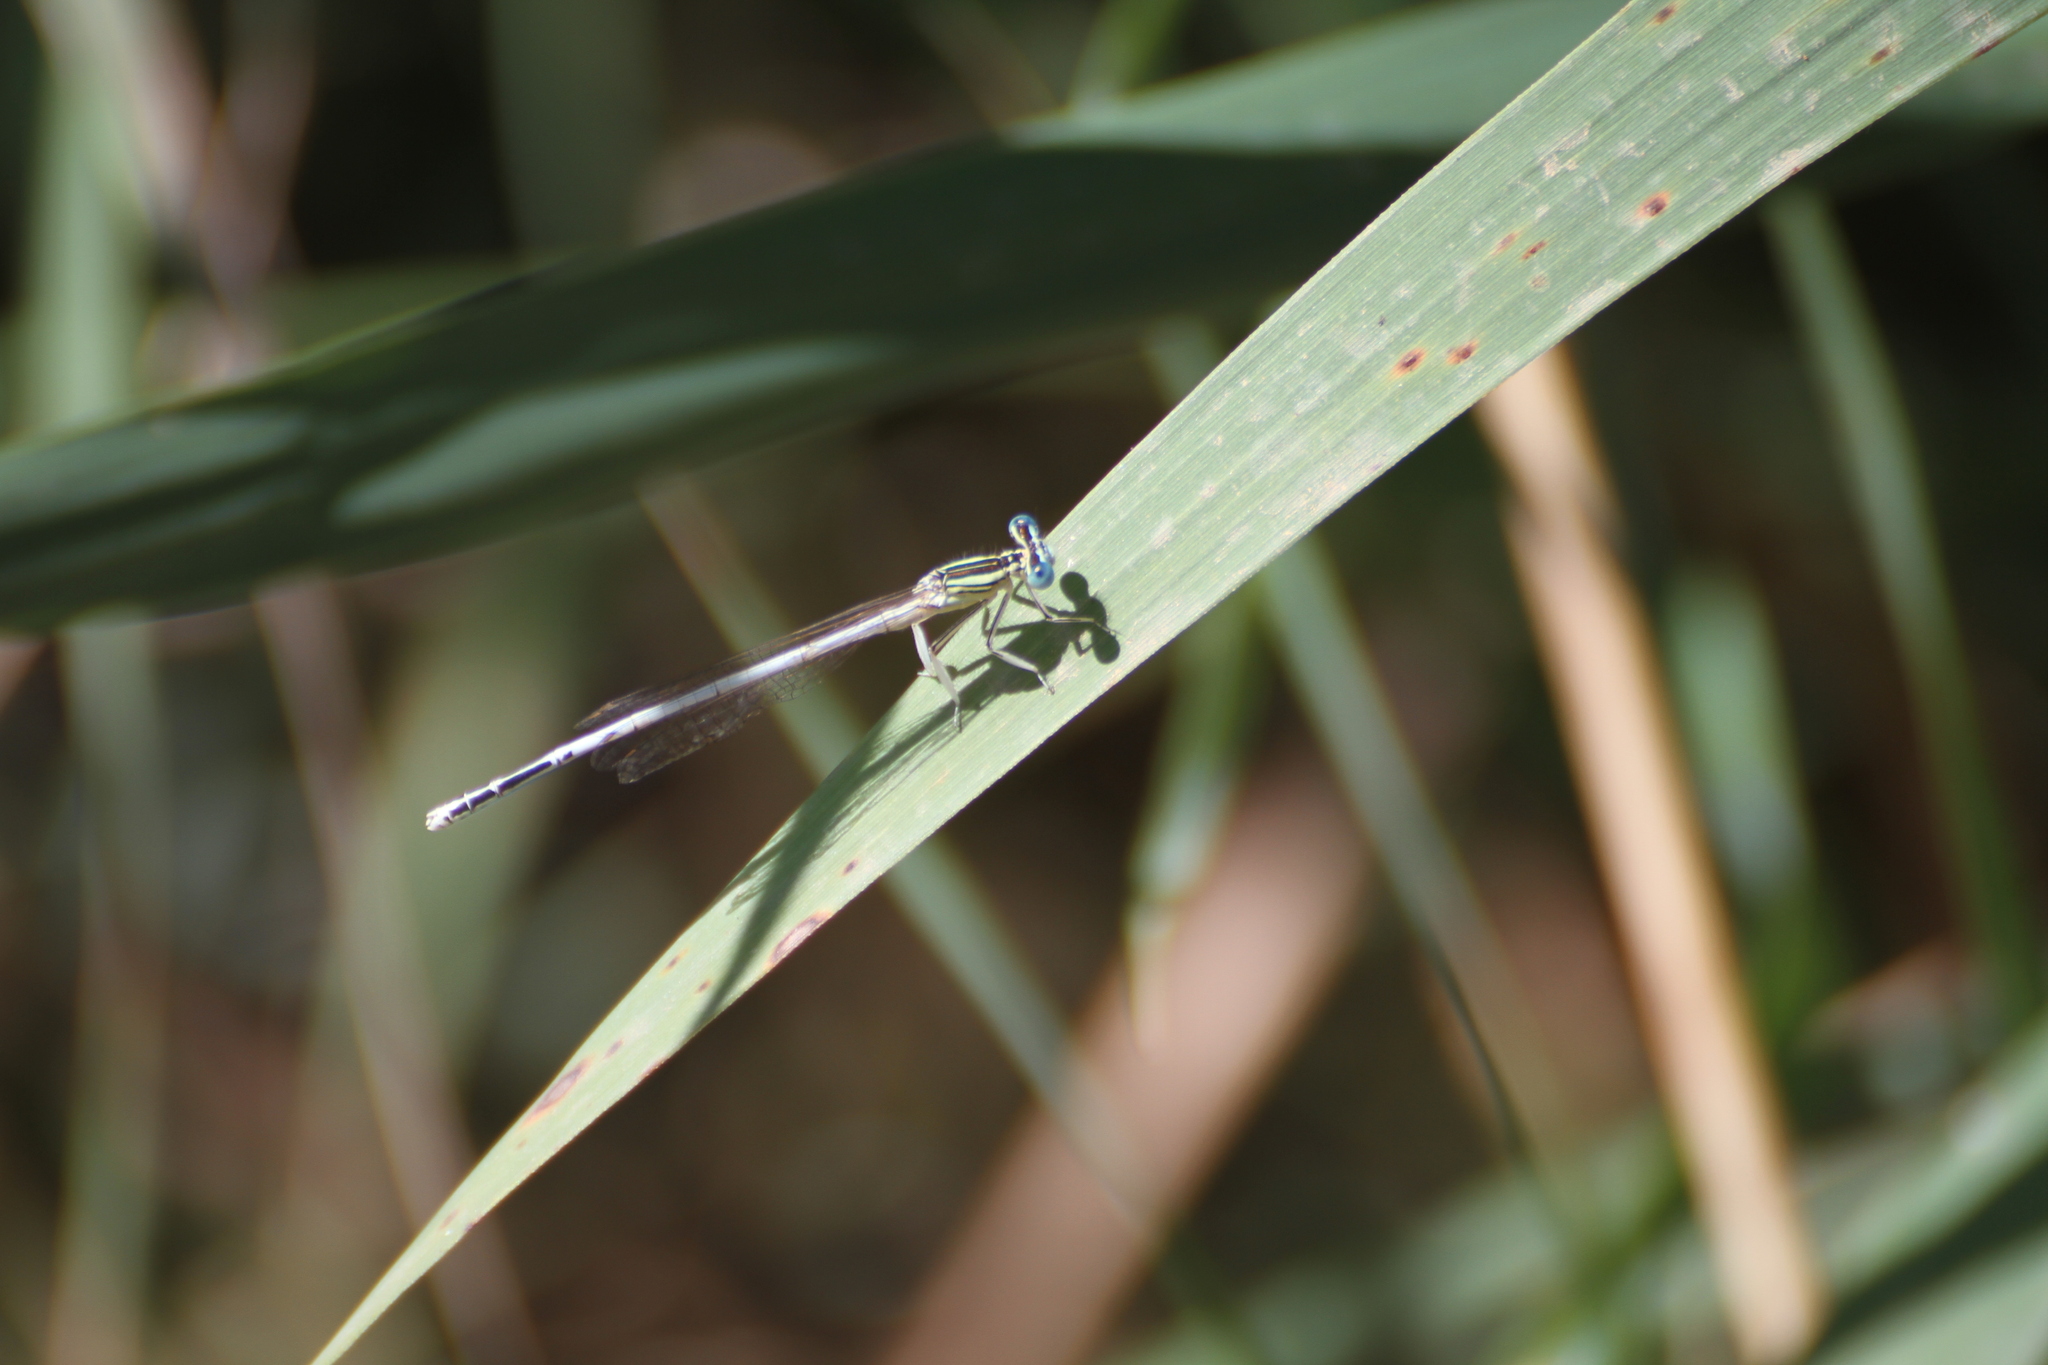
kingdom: Animalia
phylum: Arthropoda
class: Insecta
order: Odonata
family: Platycnemididae
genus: Platycnemis
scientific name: Platycnemis latipes
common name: White featherleg
